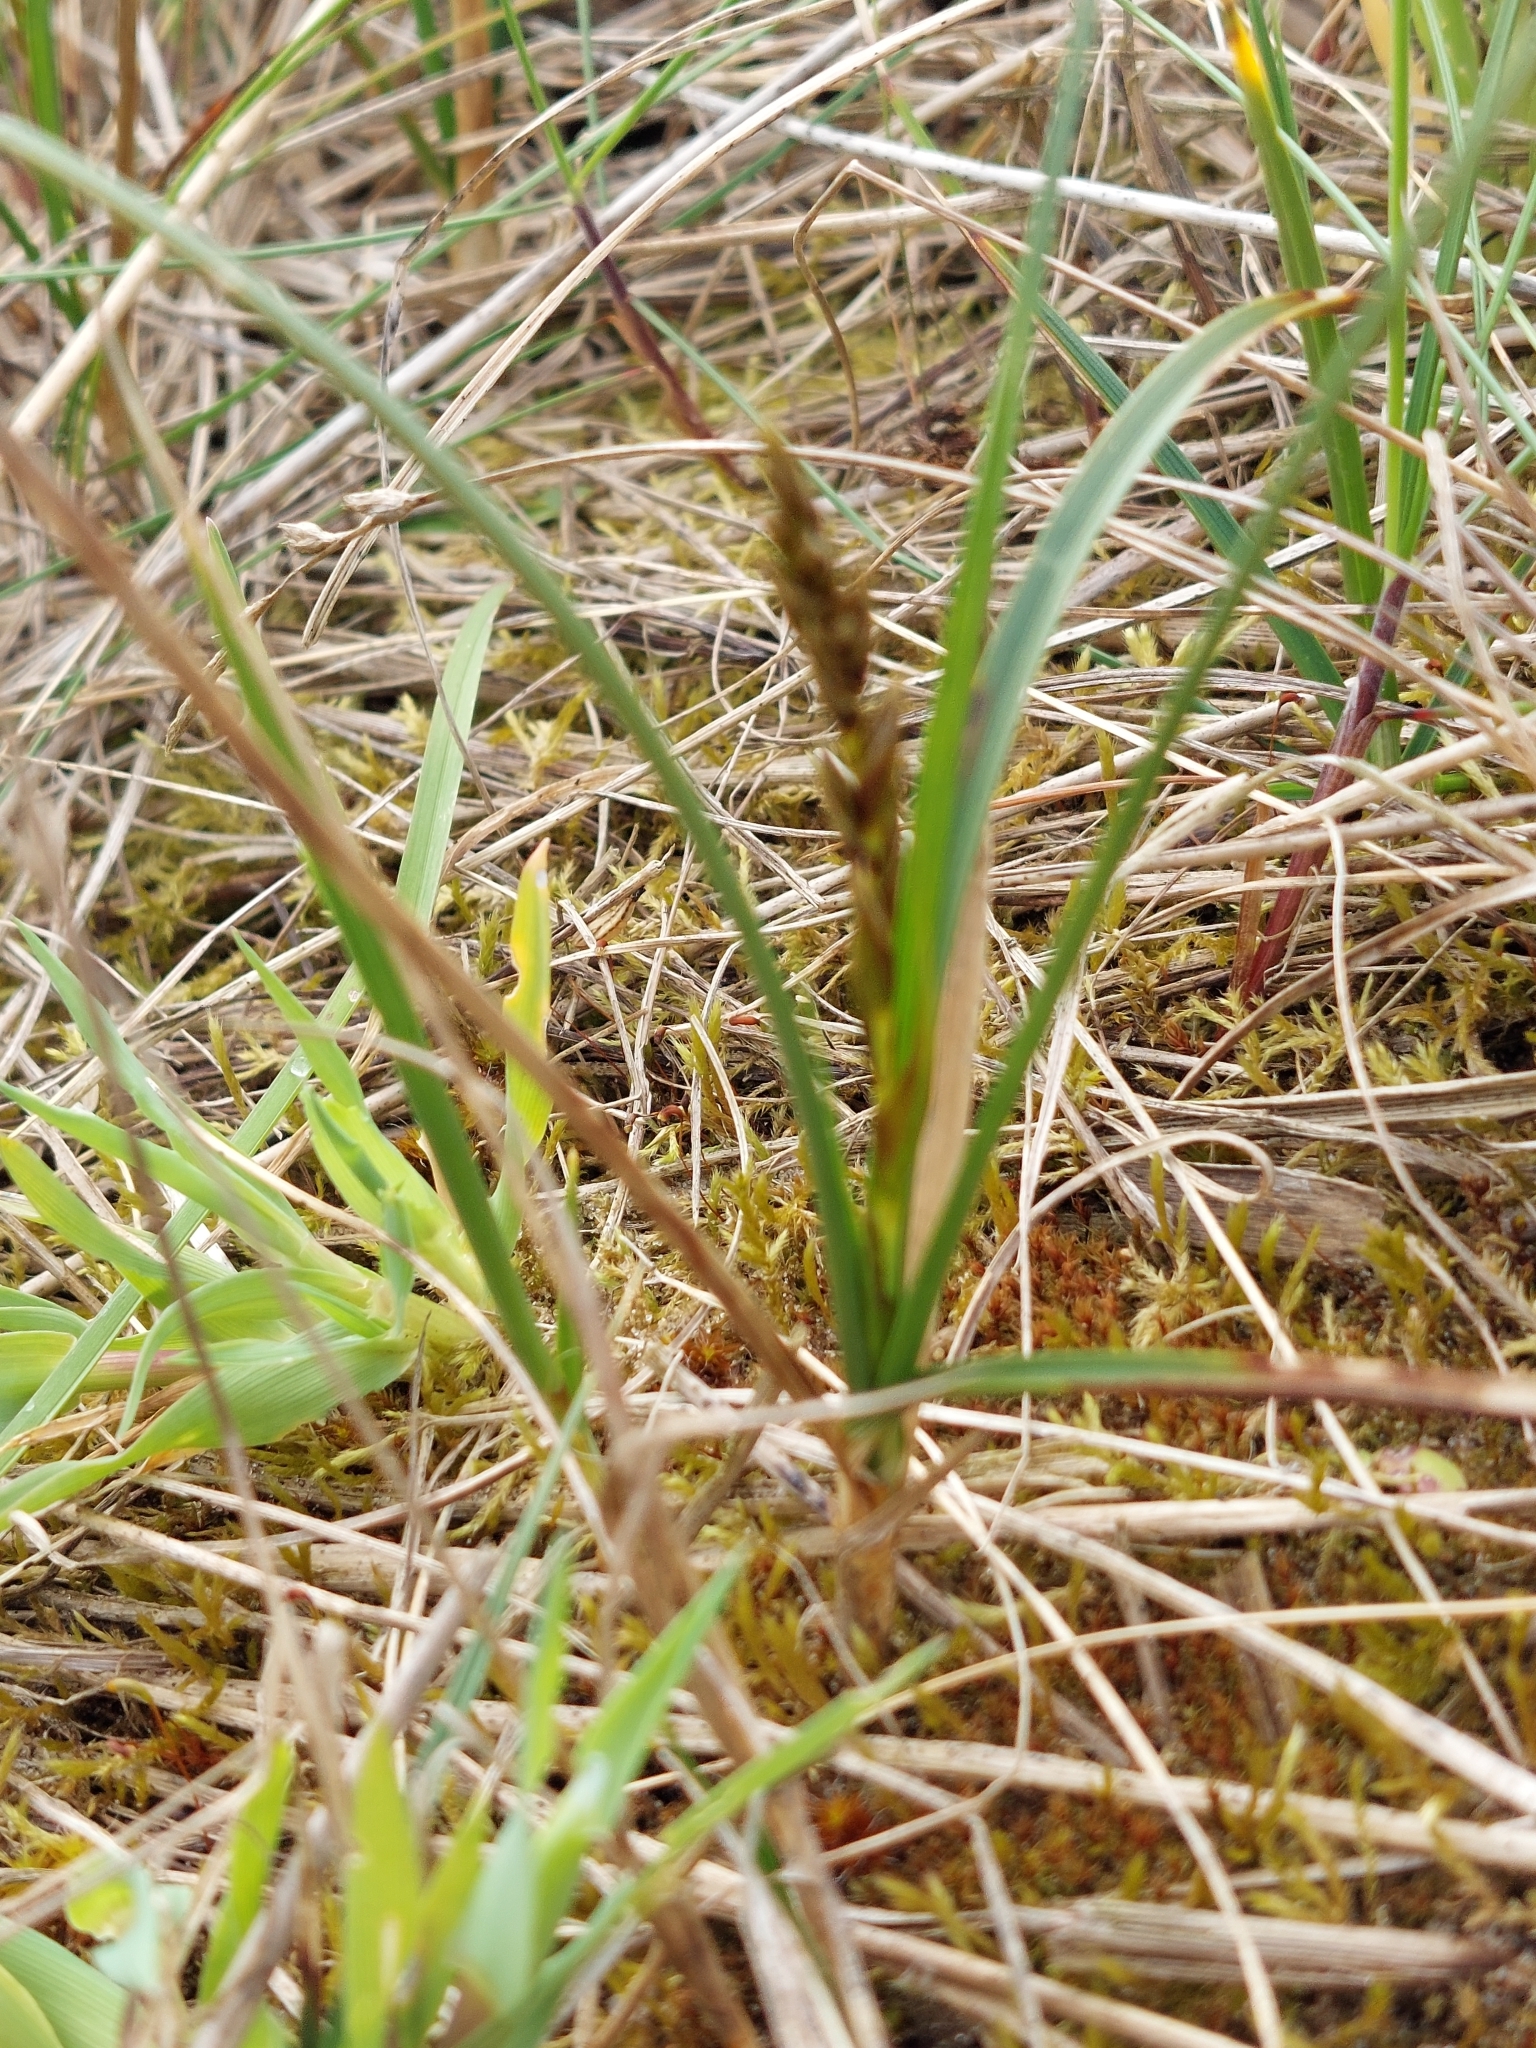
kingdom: Plantae
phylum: Tracheophyta
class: Liliopsida
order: Poales
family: Cyperaceae
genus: Carex
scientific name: Carex arenaria
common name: Sand sedge
